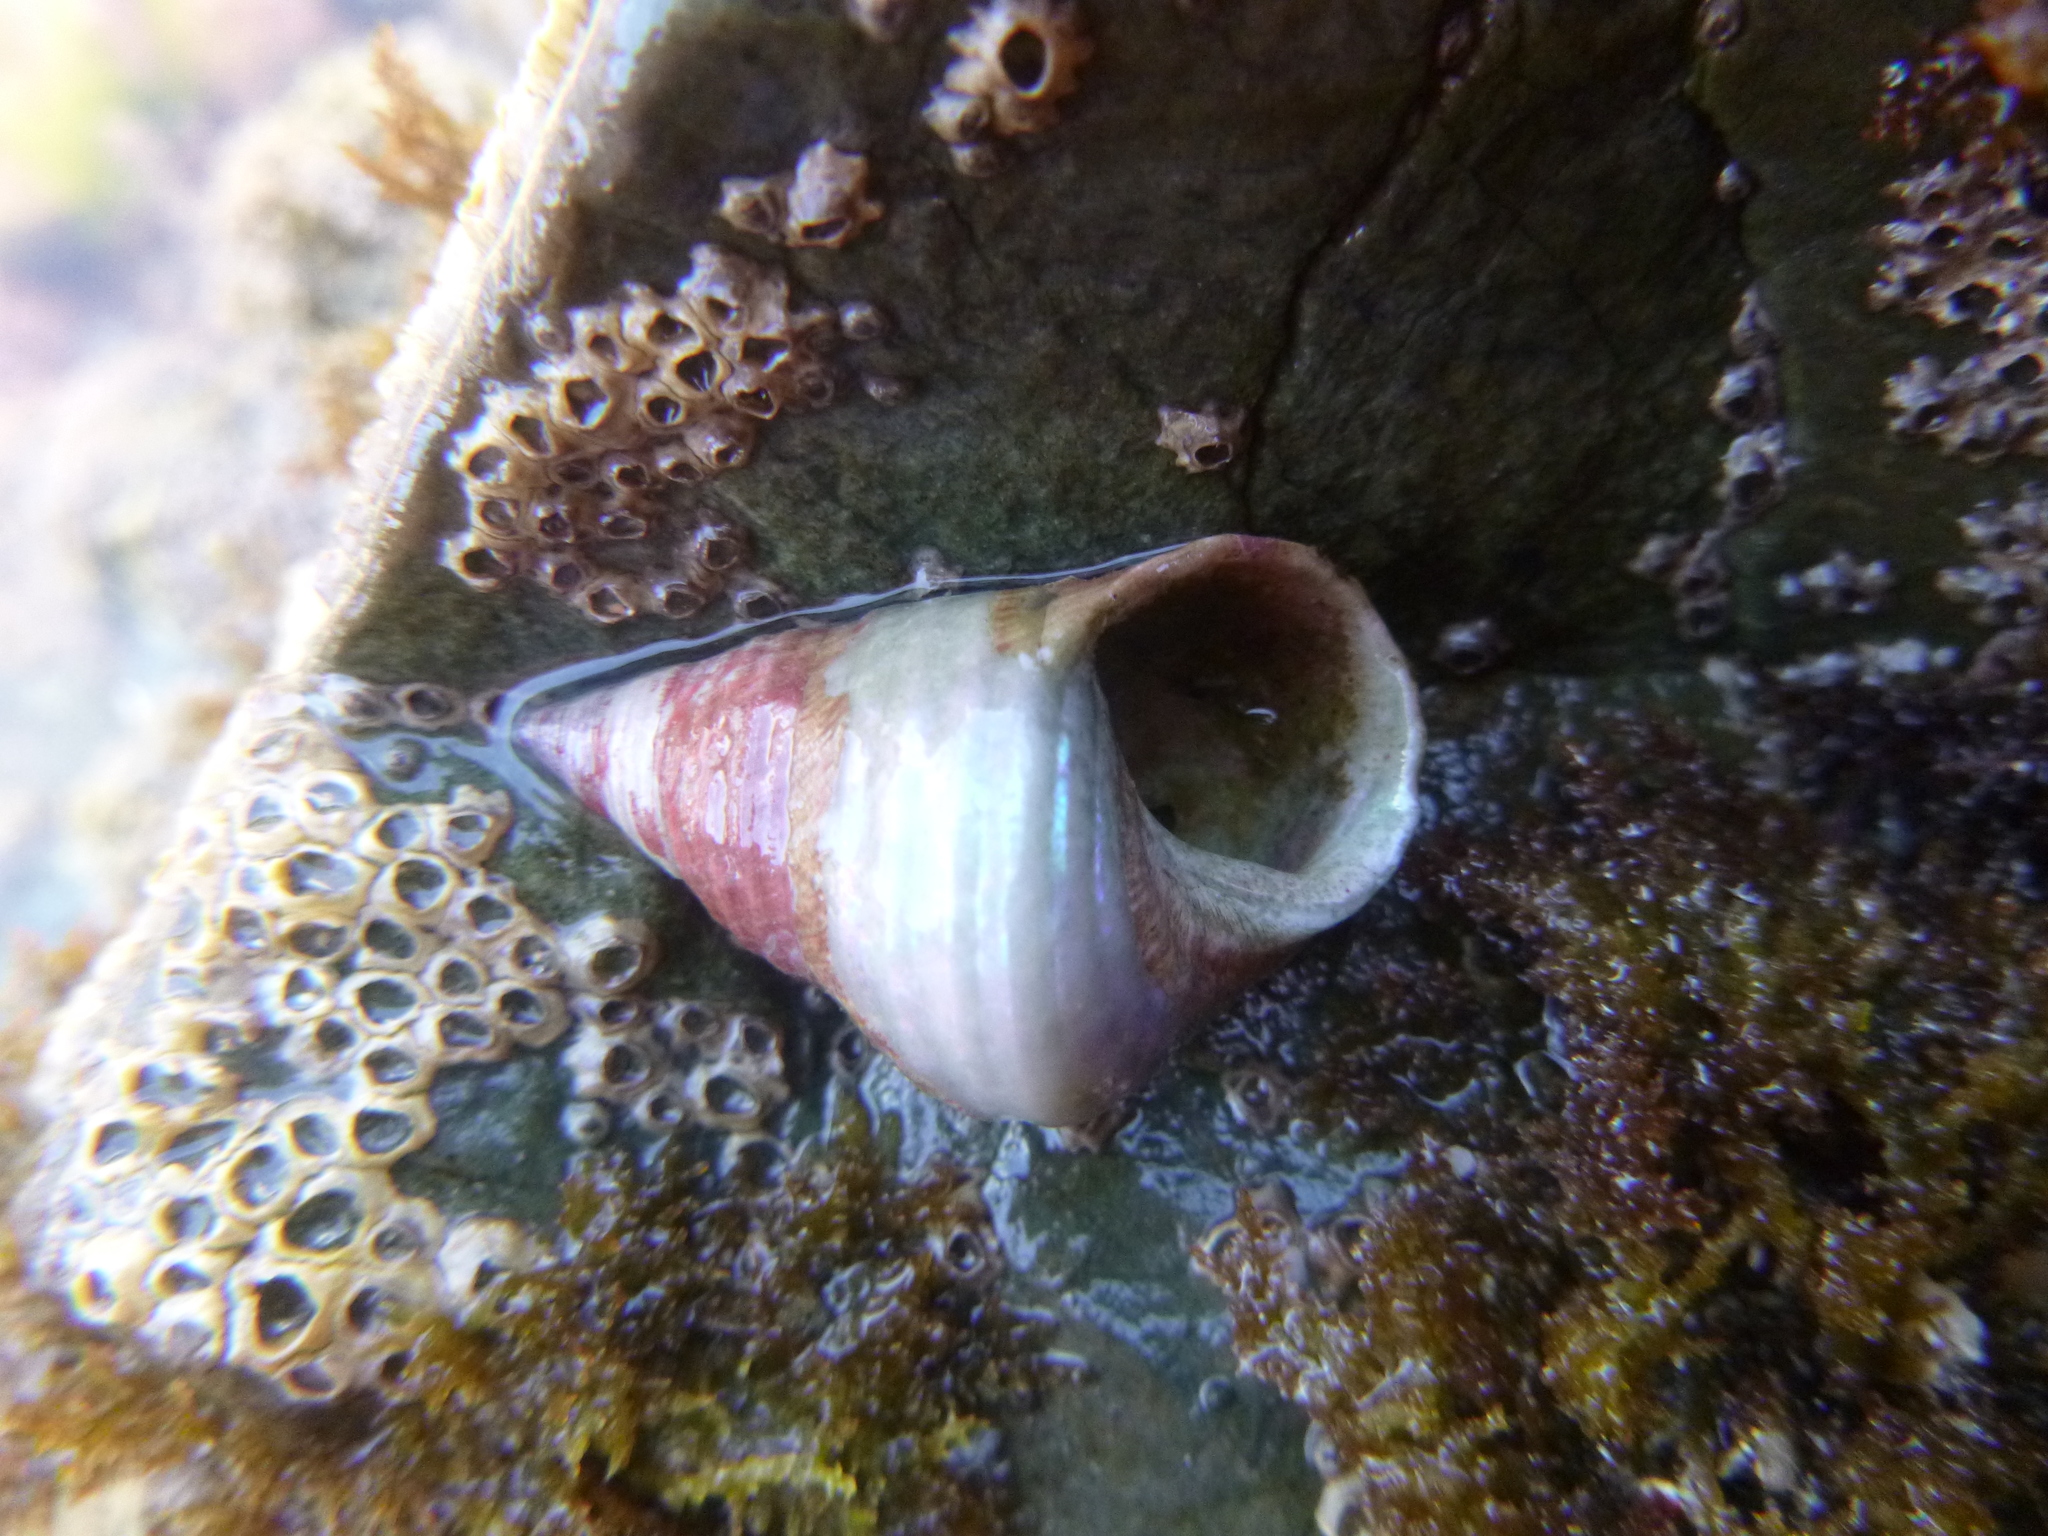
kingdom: Animalia
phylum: Mollusca
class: Gastropoda
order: Trochida
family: Trochidae
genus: Micrelenchus
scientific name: Micrelenchus purpureus
